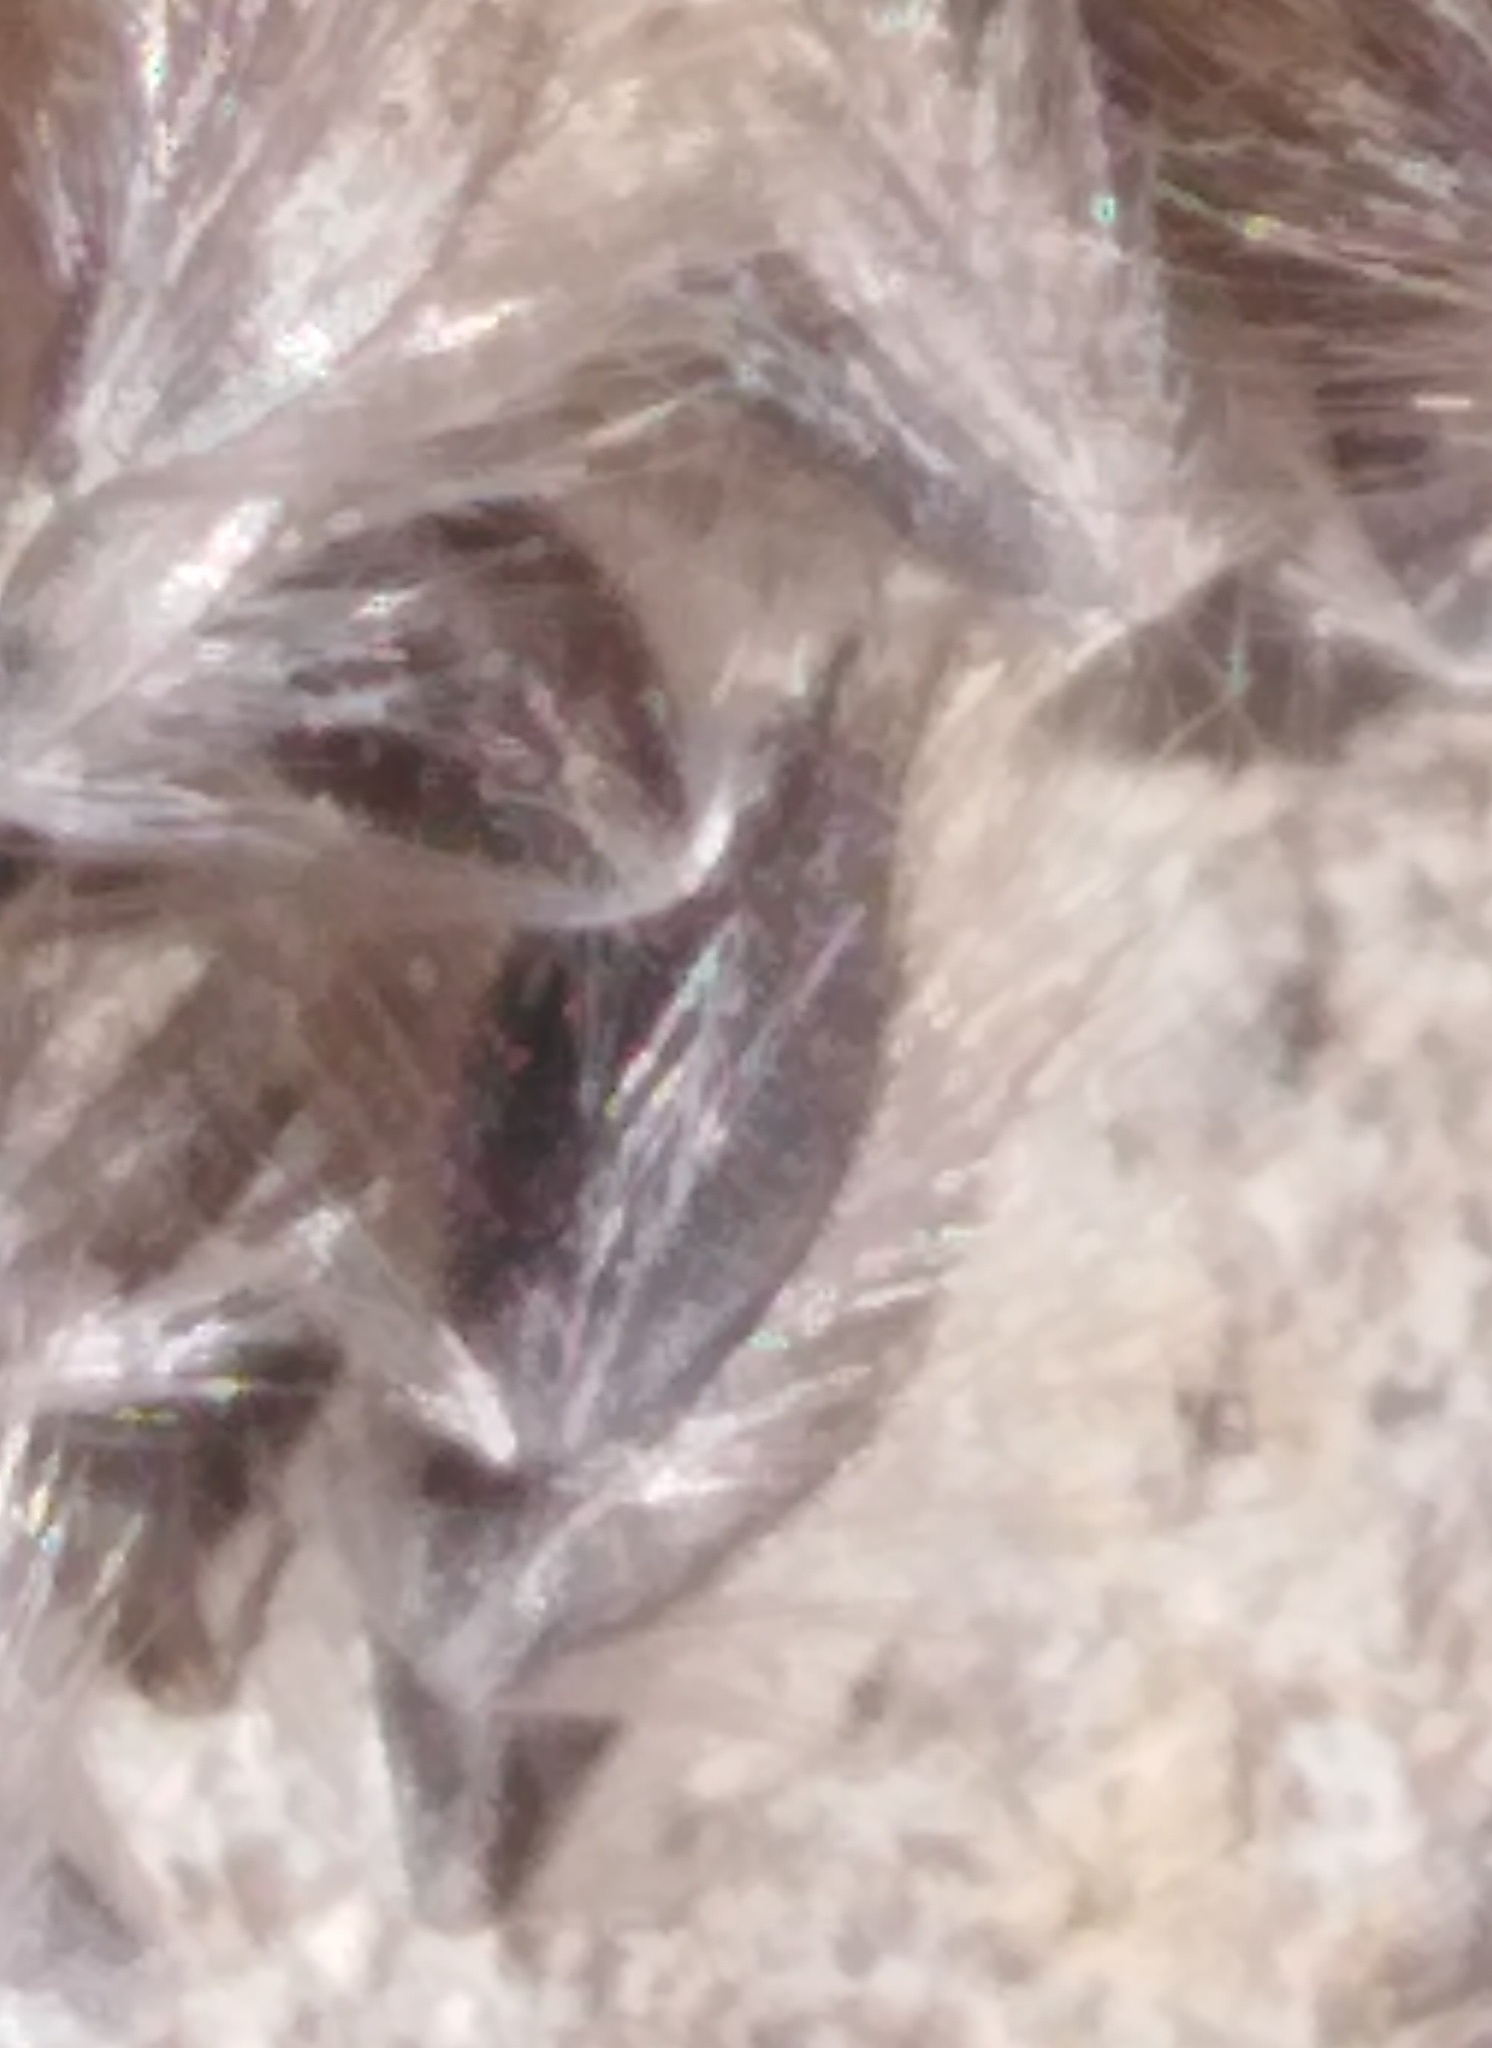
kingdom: Plantae
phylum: Tracheophyta
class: Liliopsida
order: Poales
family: Poaceae
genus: Alopecurus
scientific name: Alopecurus arundinaceus
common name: Creeping meadow foxtail
